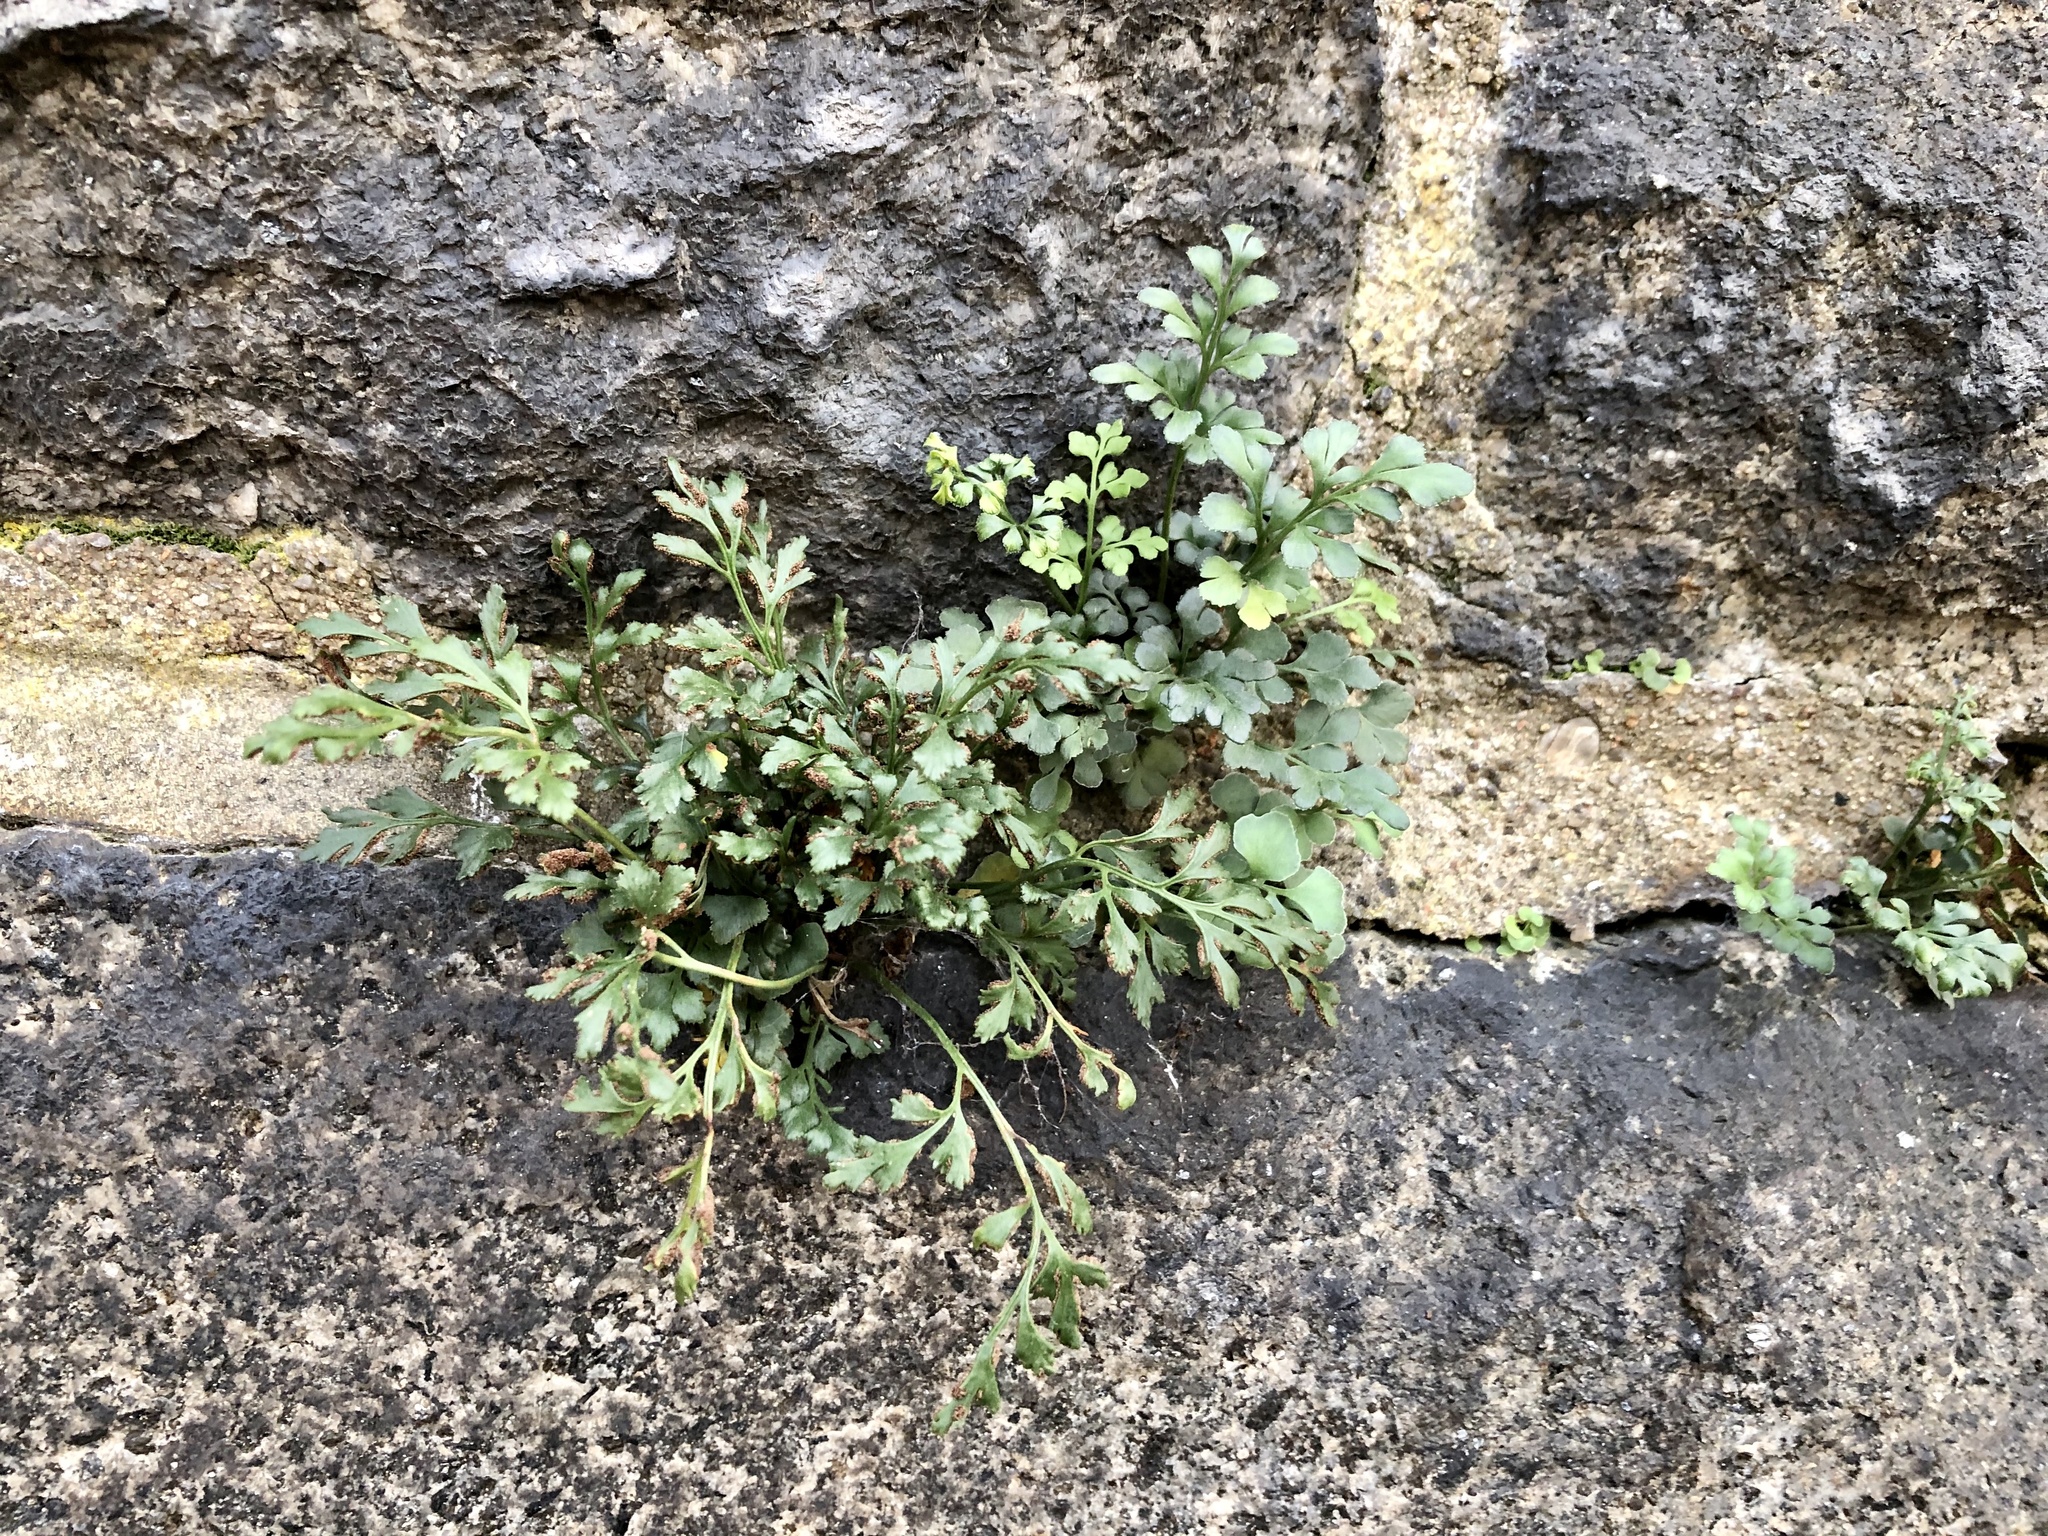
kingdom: Plantae
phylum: Tracheophyta
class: Polypodiopsida
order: Polypodiales
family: Aspleniaceae
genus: Asplenium
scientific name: Asplenium ruta-muraria
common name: Wall-rue
